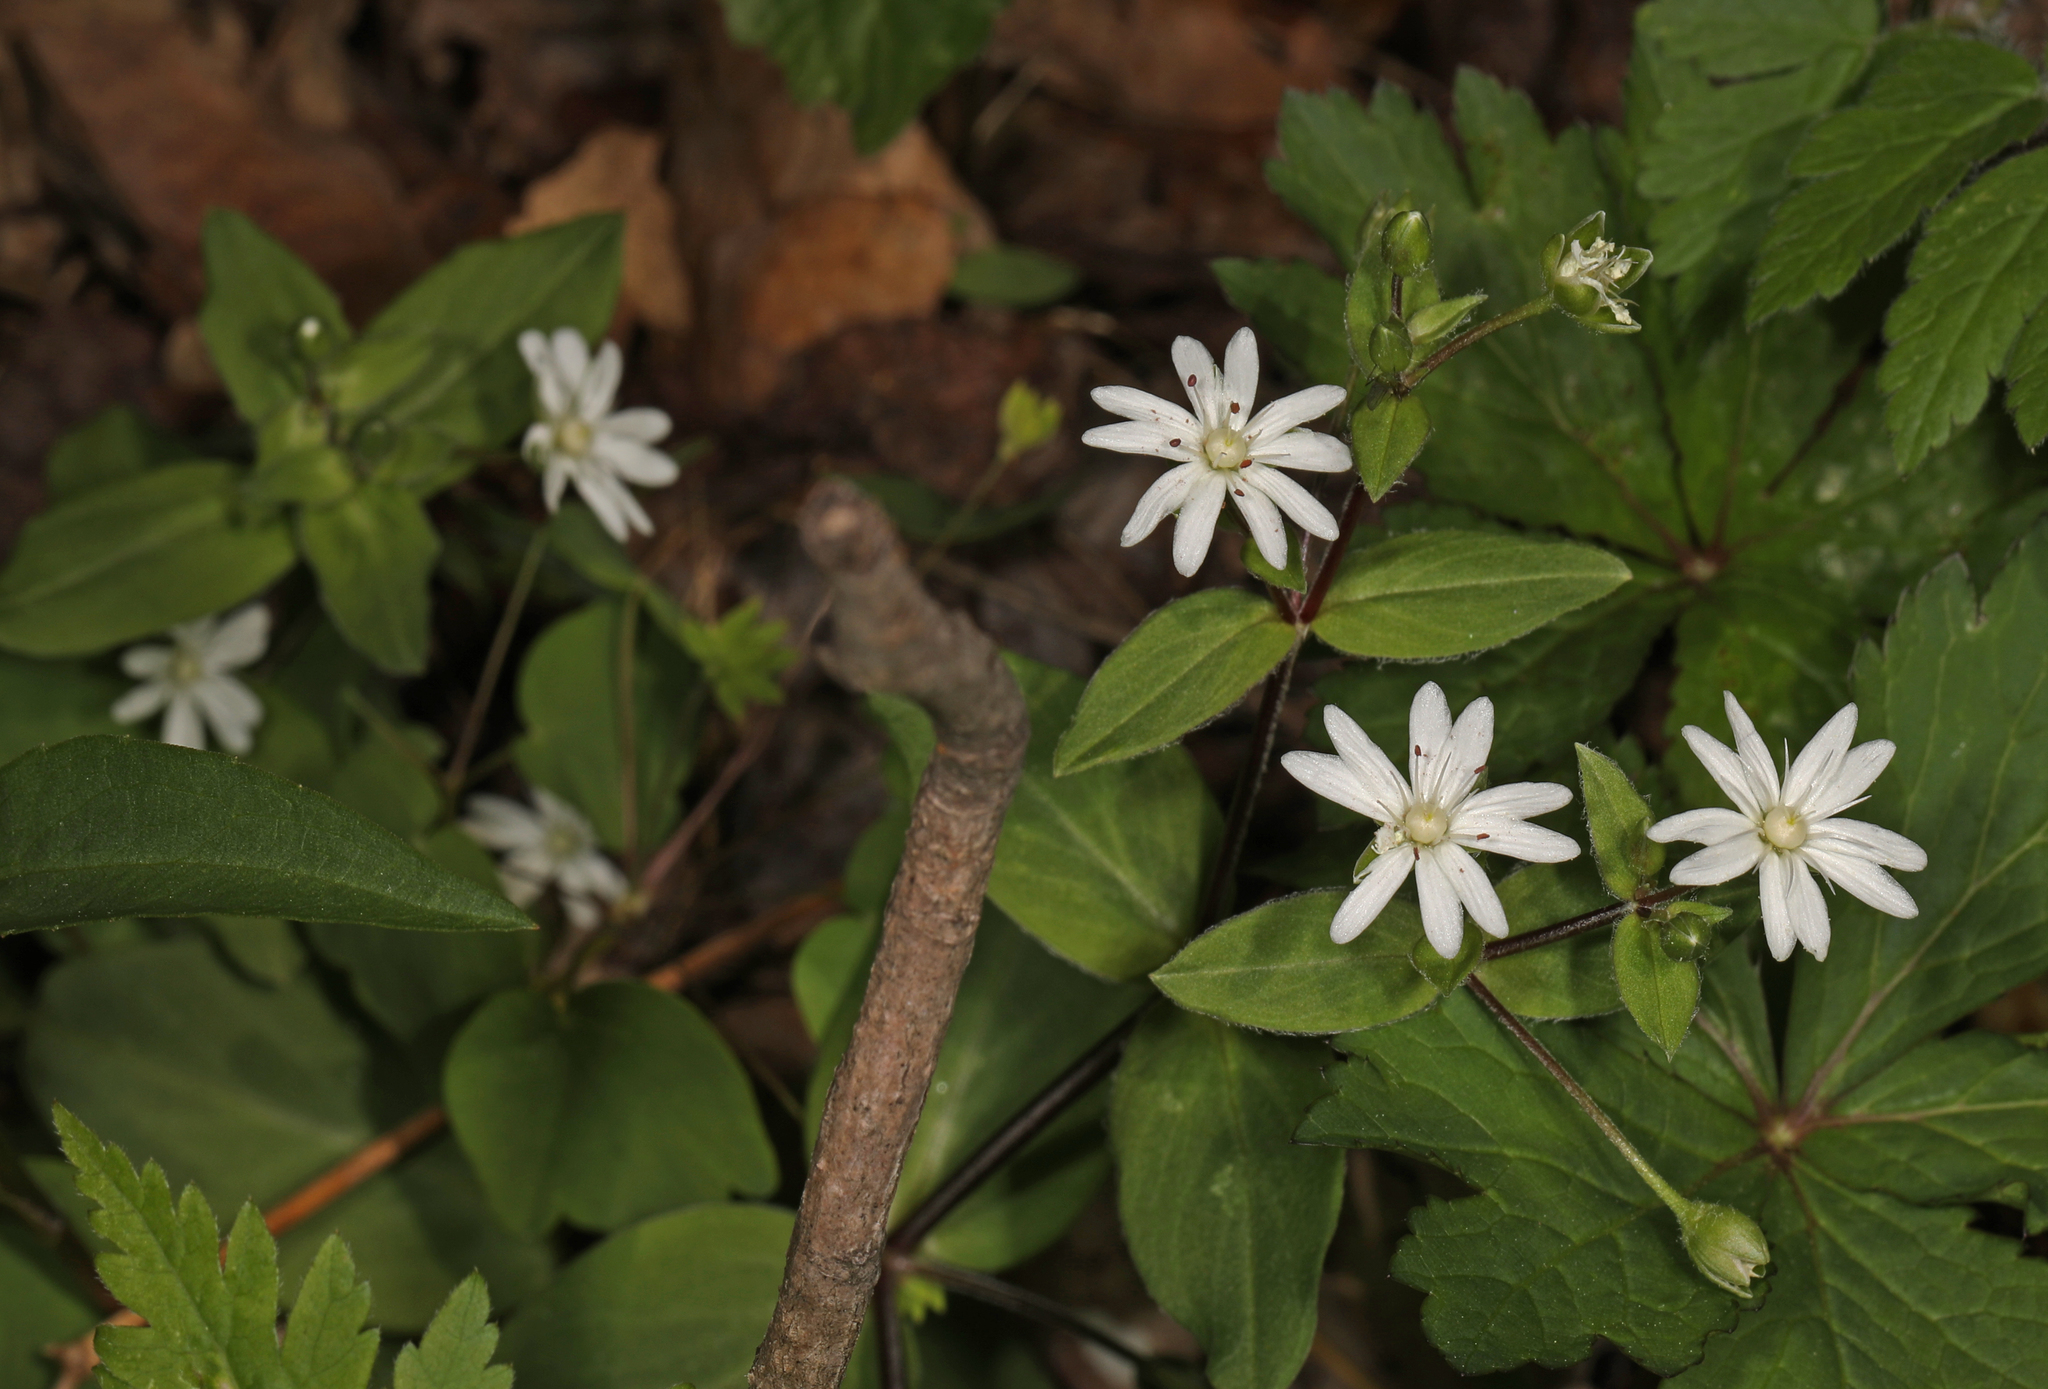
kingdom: Plantae
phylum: Tracheophyta
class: Magnoliopsida
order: Caryophyllales
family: Caryophyllaceae
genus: Stellaria
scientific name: Stellaria pubera
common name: Star chickweed
